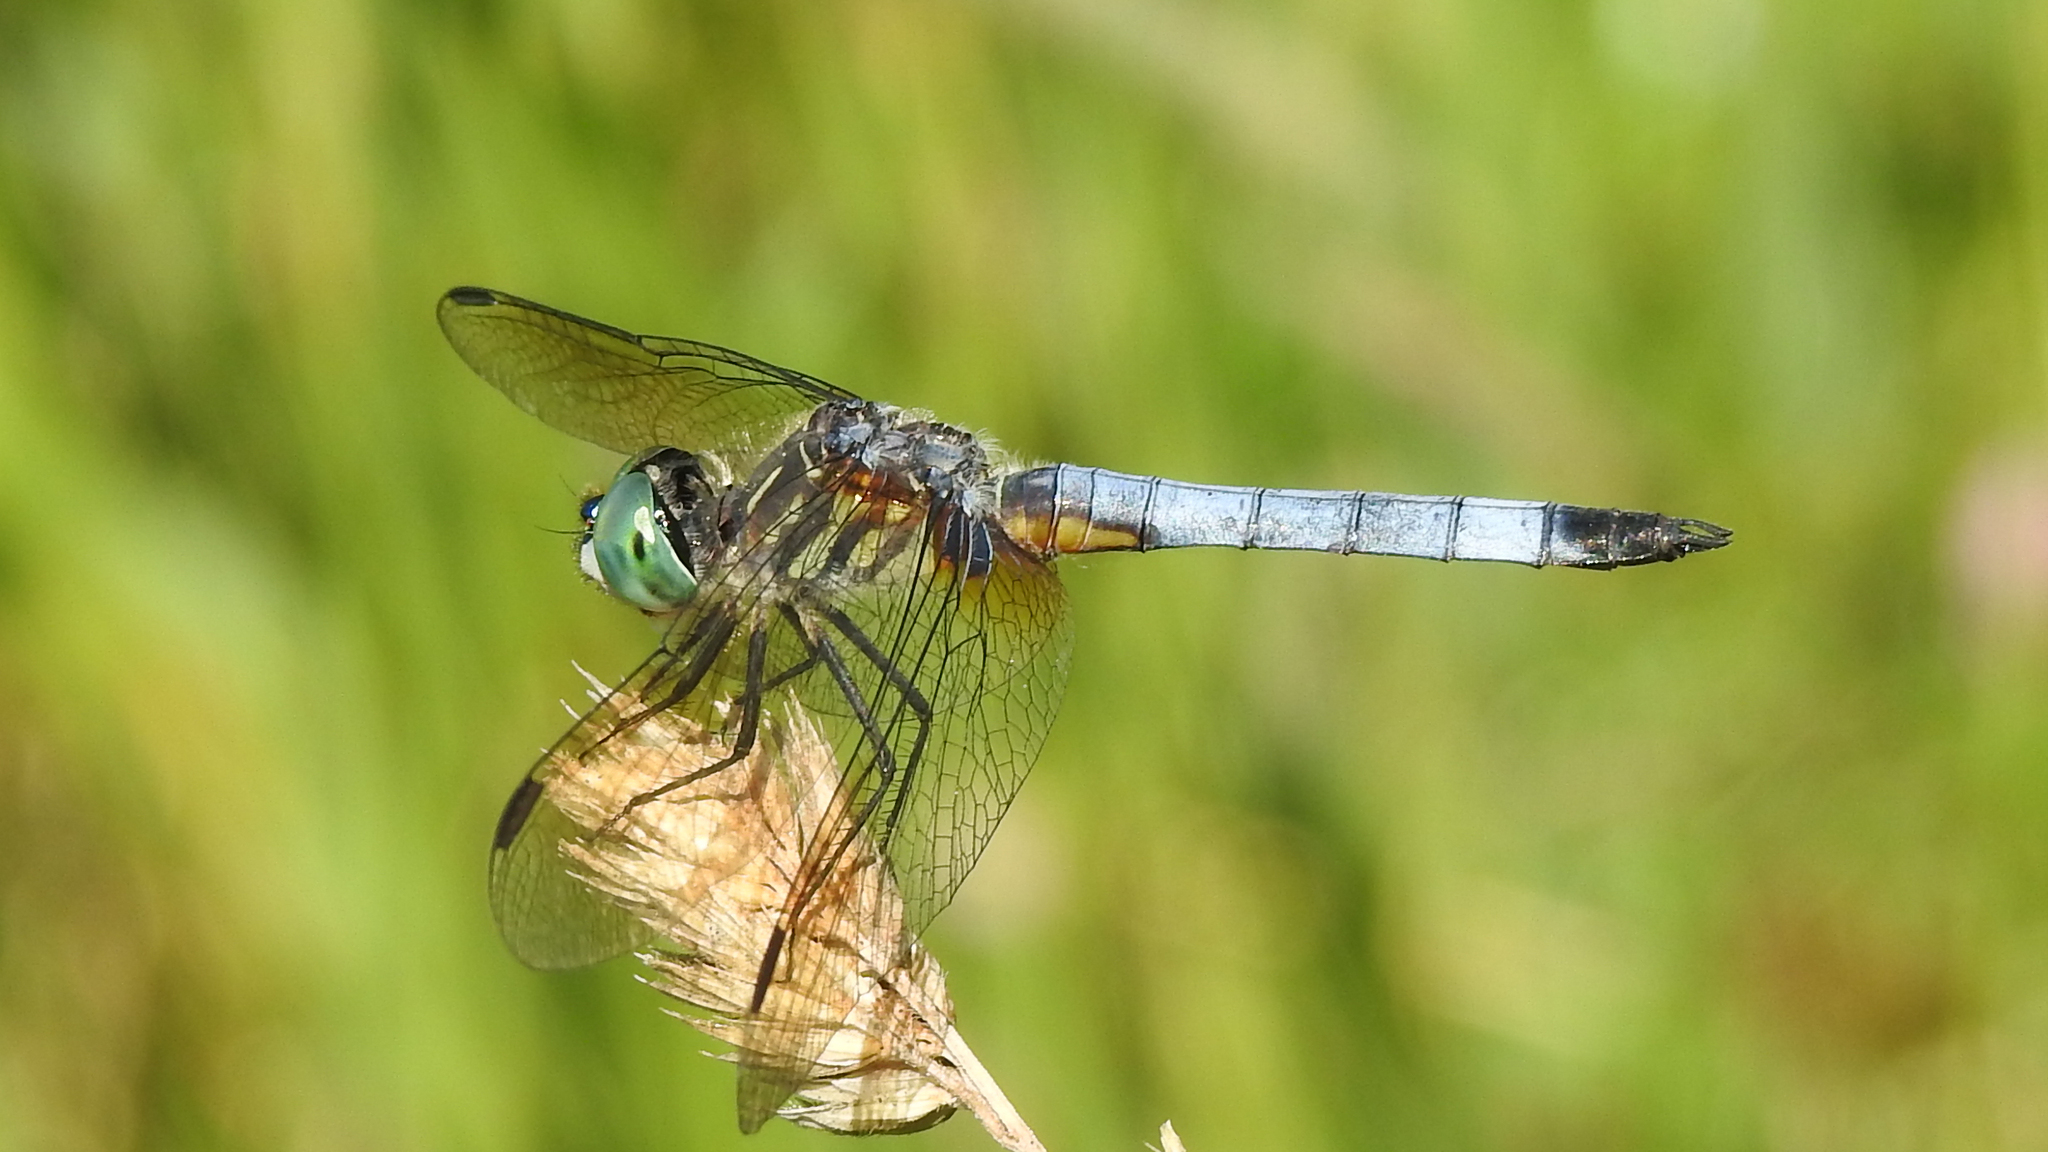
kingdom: Animalia
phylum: Arthropoda
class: Insecta
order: Odonata
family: Libellulidae
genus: Pachydiplax
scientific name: Pachydiplax longipennis
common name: Blue dasher
